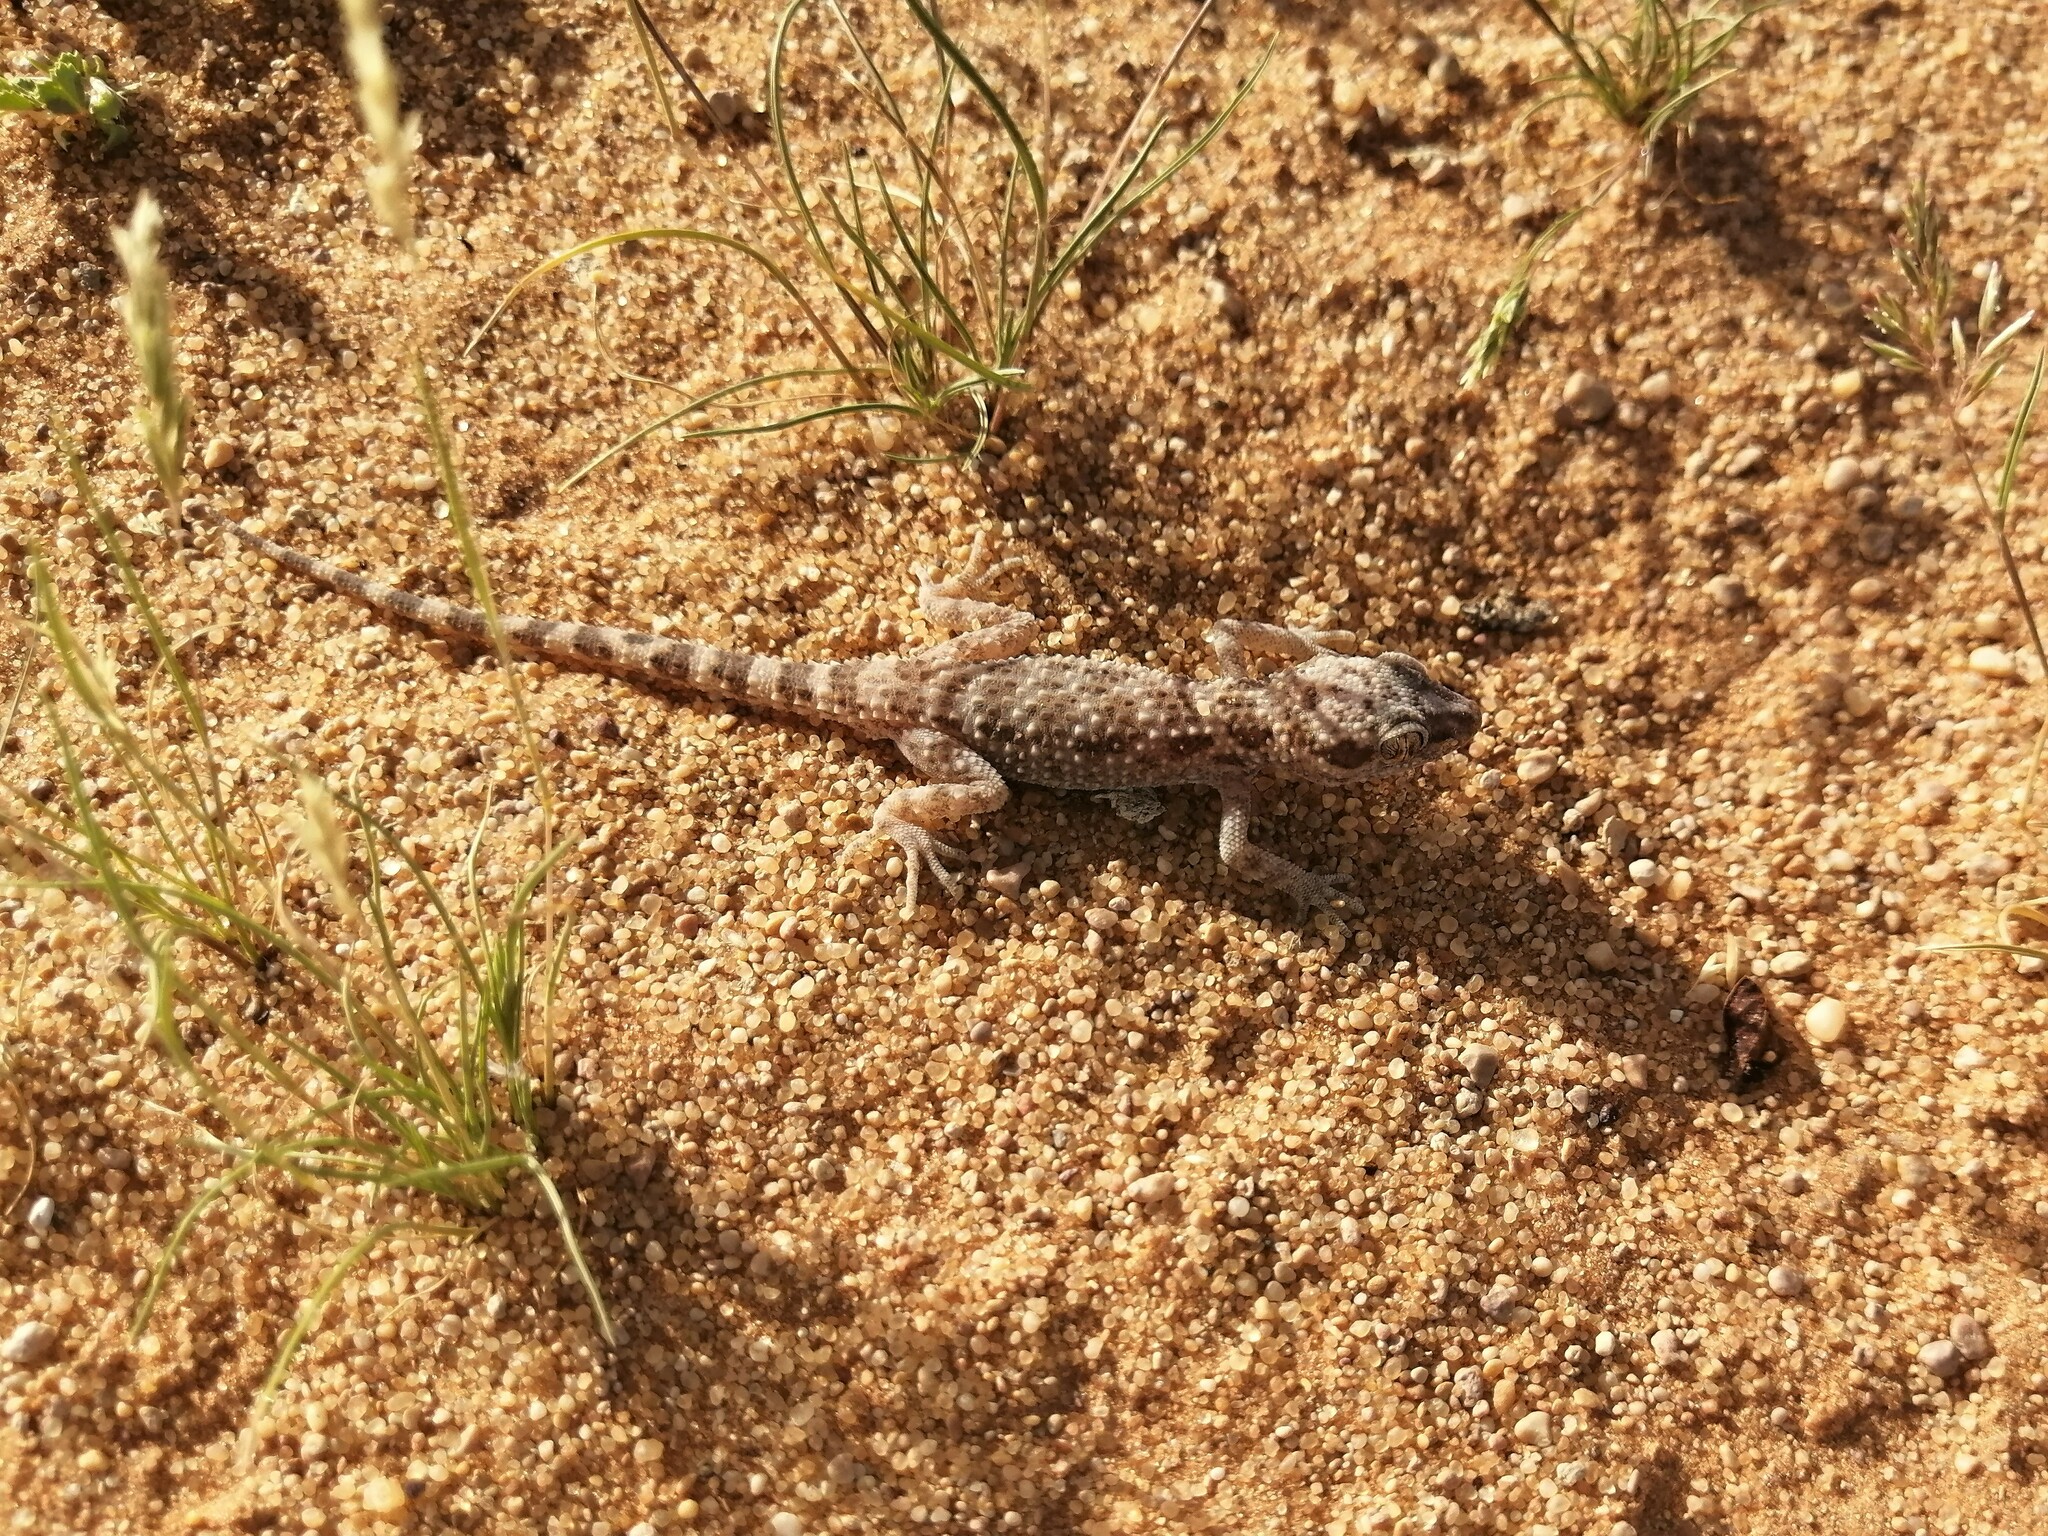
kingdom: Animalia
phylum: Chordata
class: Squamata
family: Gekkonidae
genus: Bunopus
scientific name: Bunopus tuberculatus
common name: Southern tuberculated gecko
